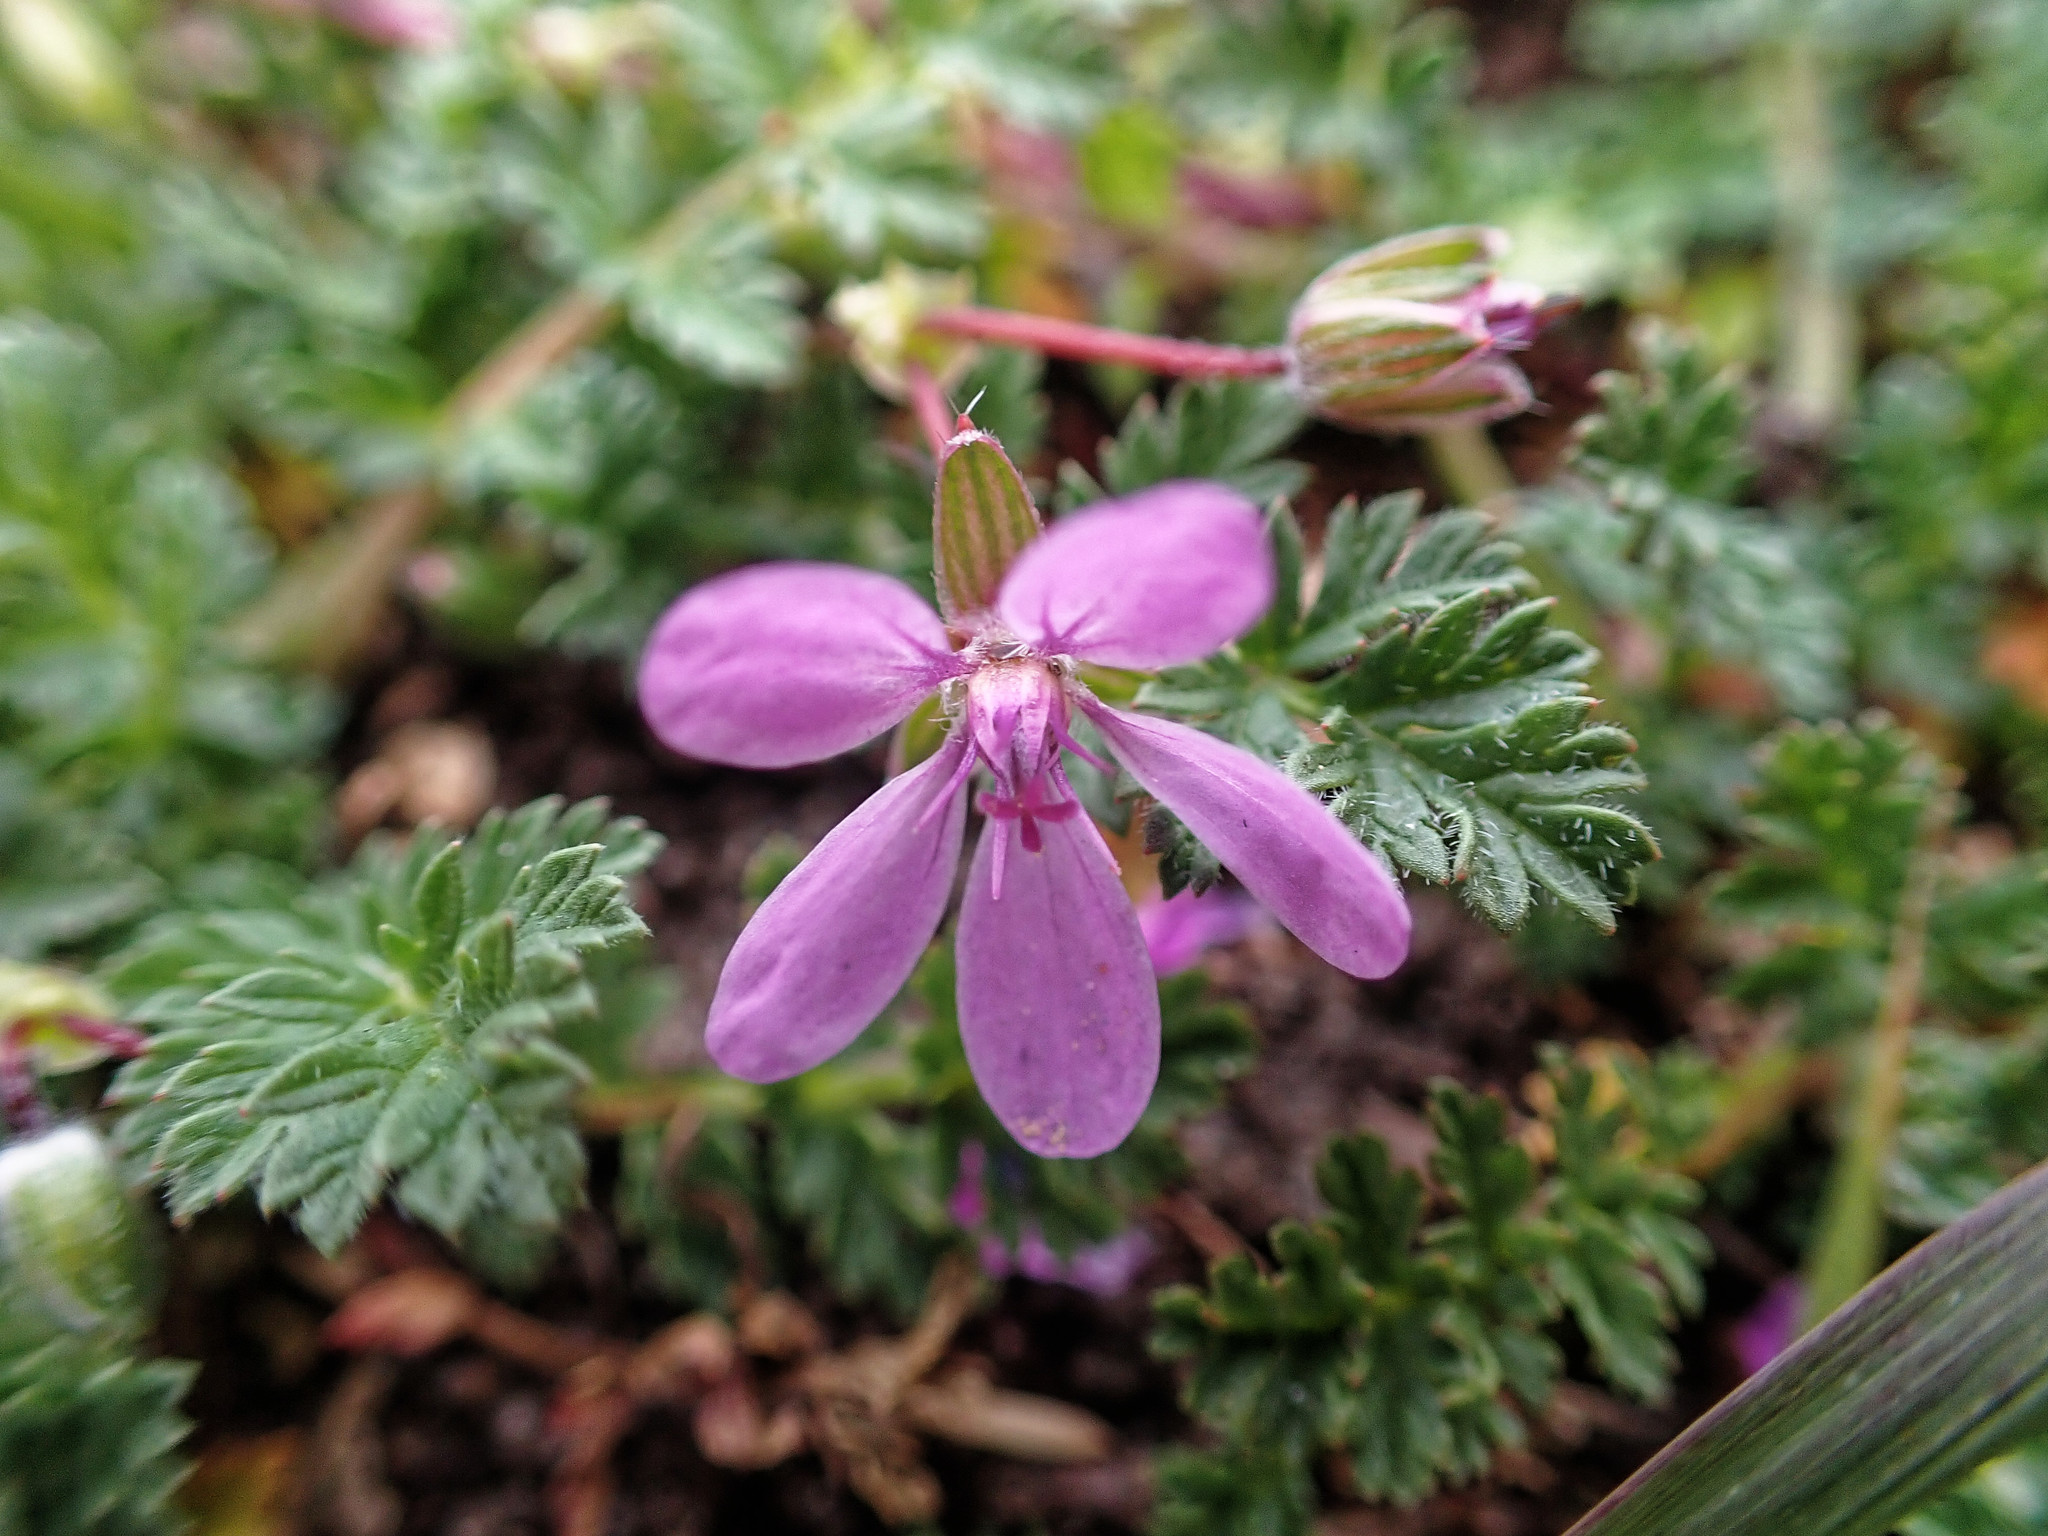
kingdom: Plantae
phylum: Tracheophyta
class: Magnoliopsida
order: Geraniales
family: Geraniaceae
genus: Erodium
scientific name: Erodium cicutarium
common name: Common stork's-bill
